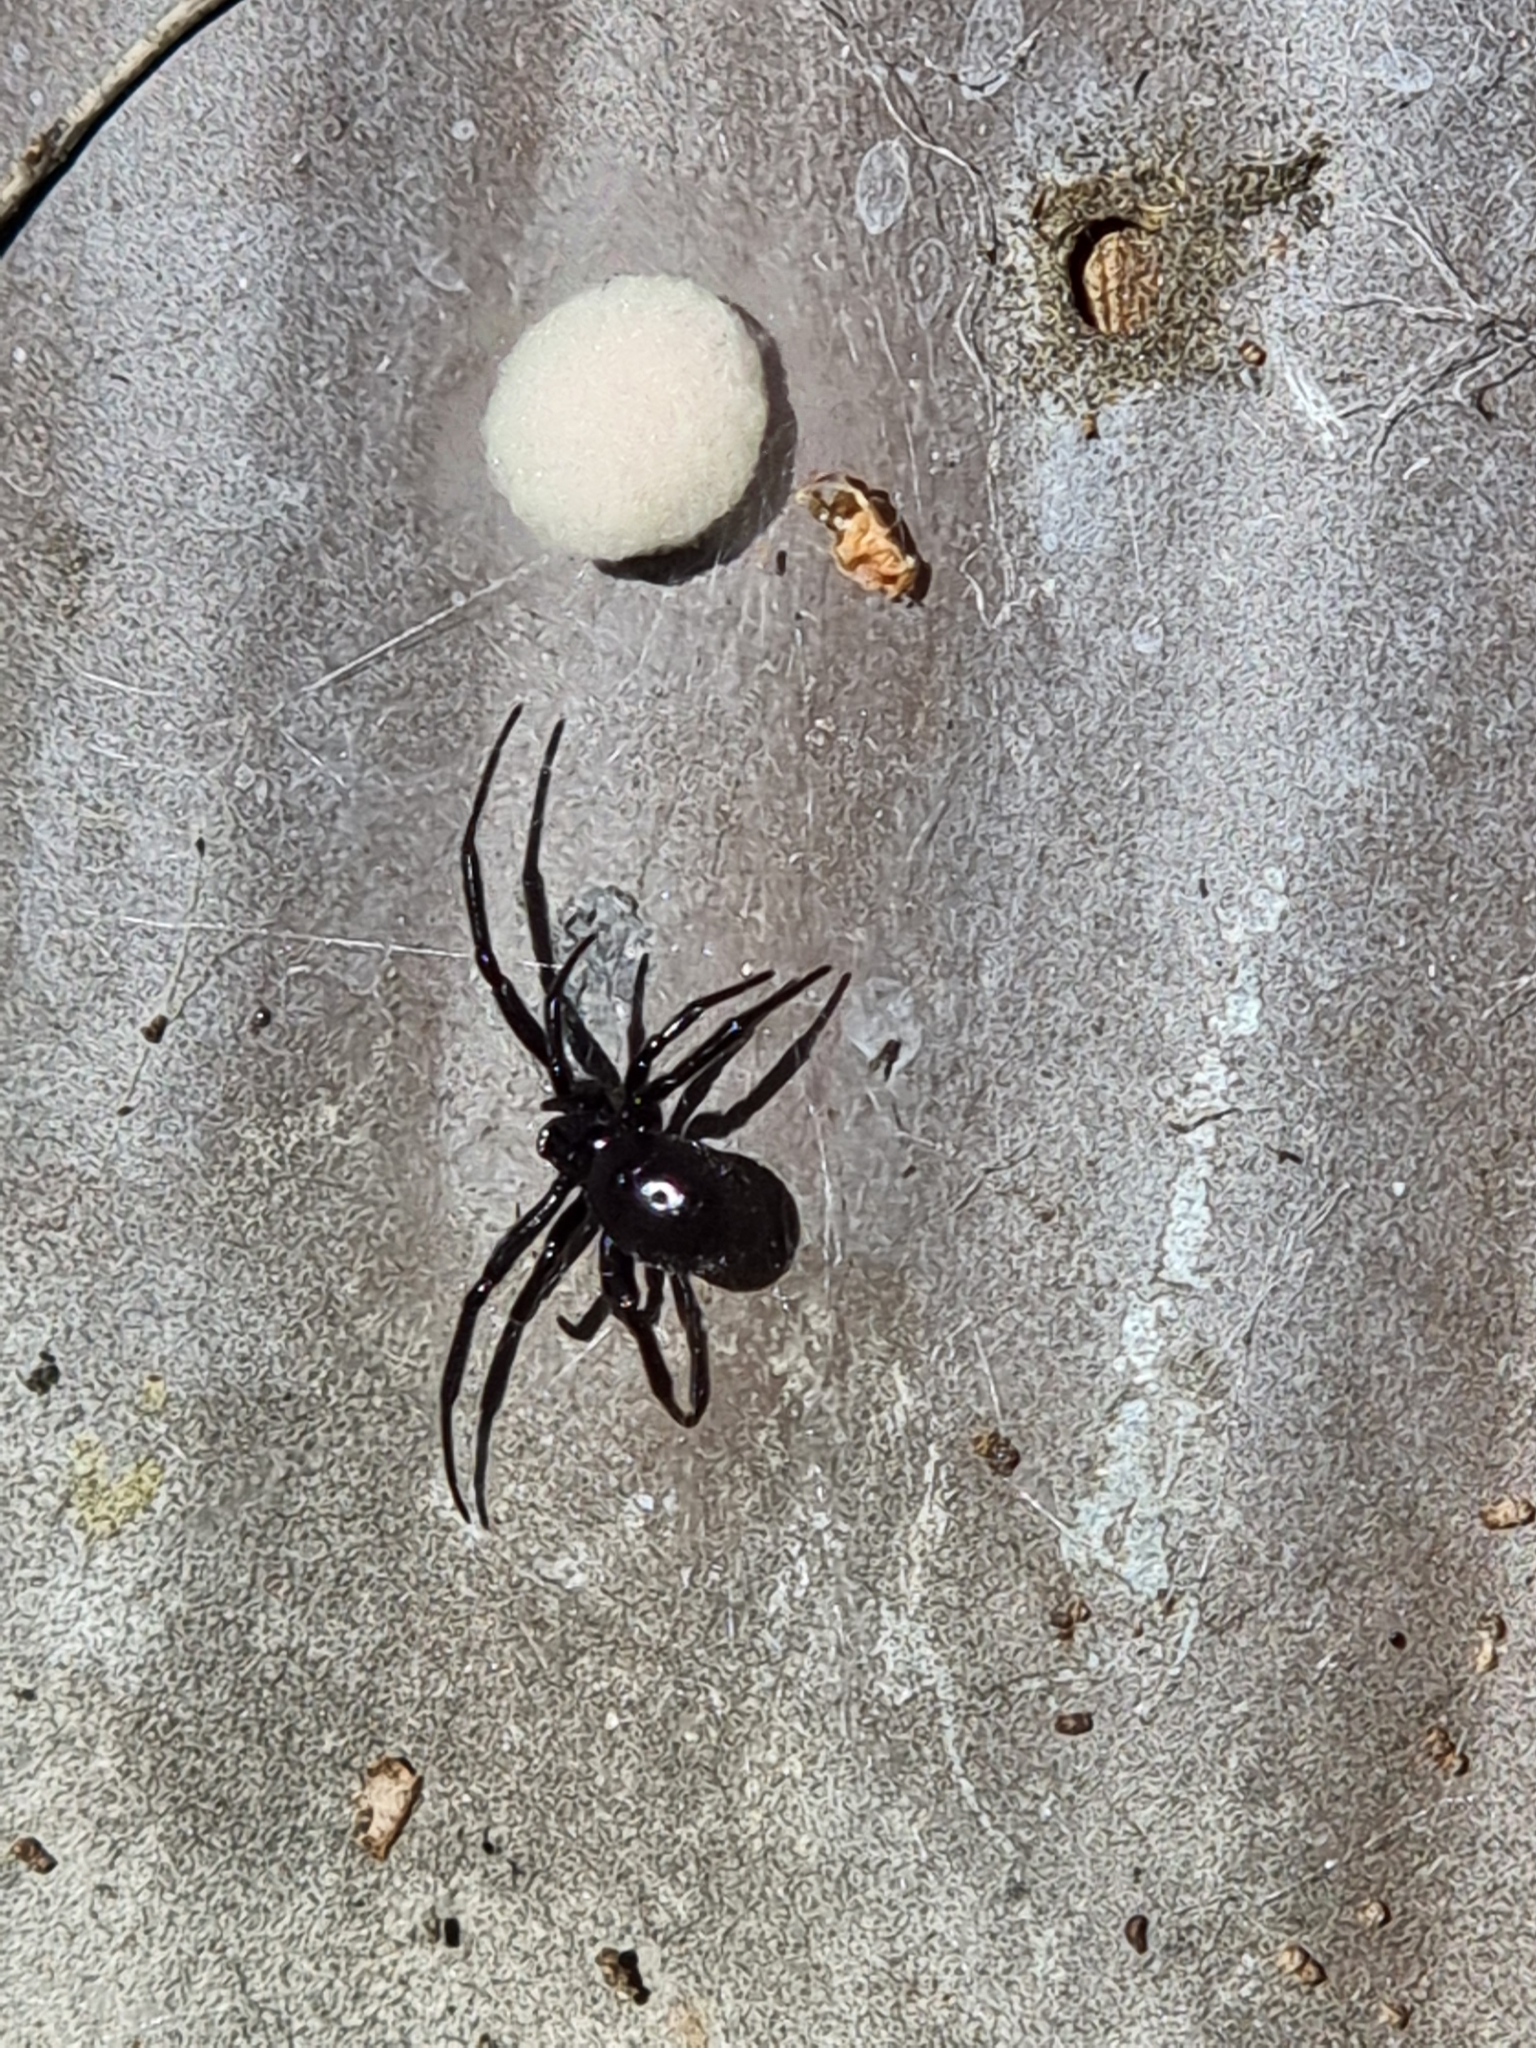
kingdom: Animalia
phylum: Arthropoda
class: Arachnida
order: Araneae
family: Theridiidae
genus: Steatoda
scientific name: Steatoda capensis
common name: Cobweb weaver
